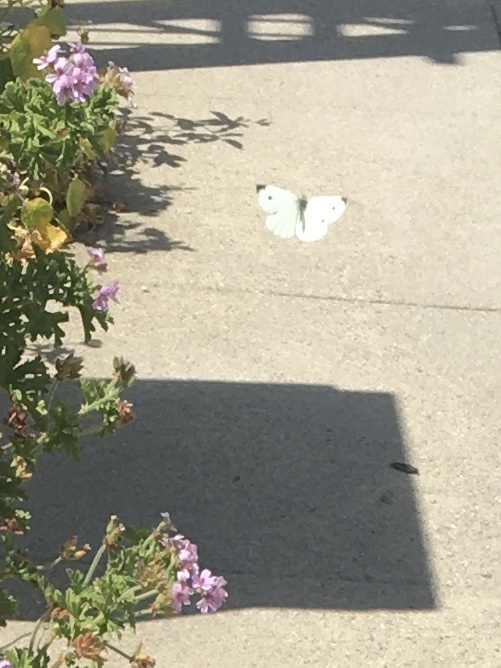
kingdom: Animalia
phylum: Arthropoda
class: Insecta
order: Lepidoptera
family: Pieridae
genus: Pieris
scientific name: Pieris rapae
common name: Small white
